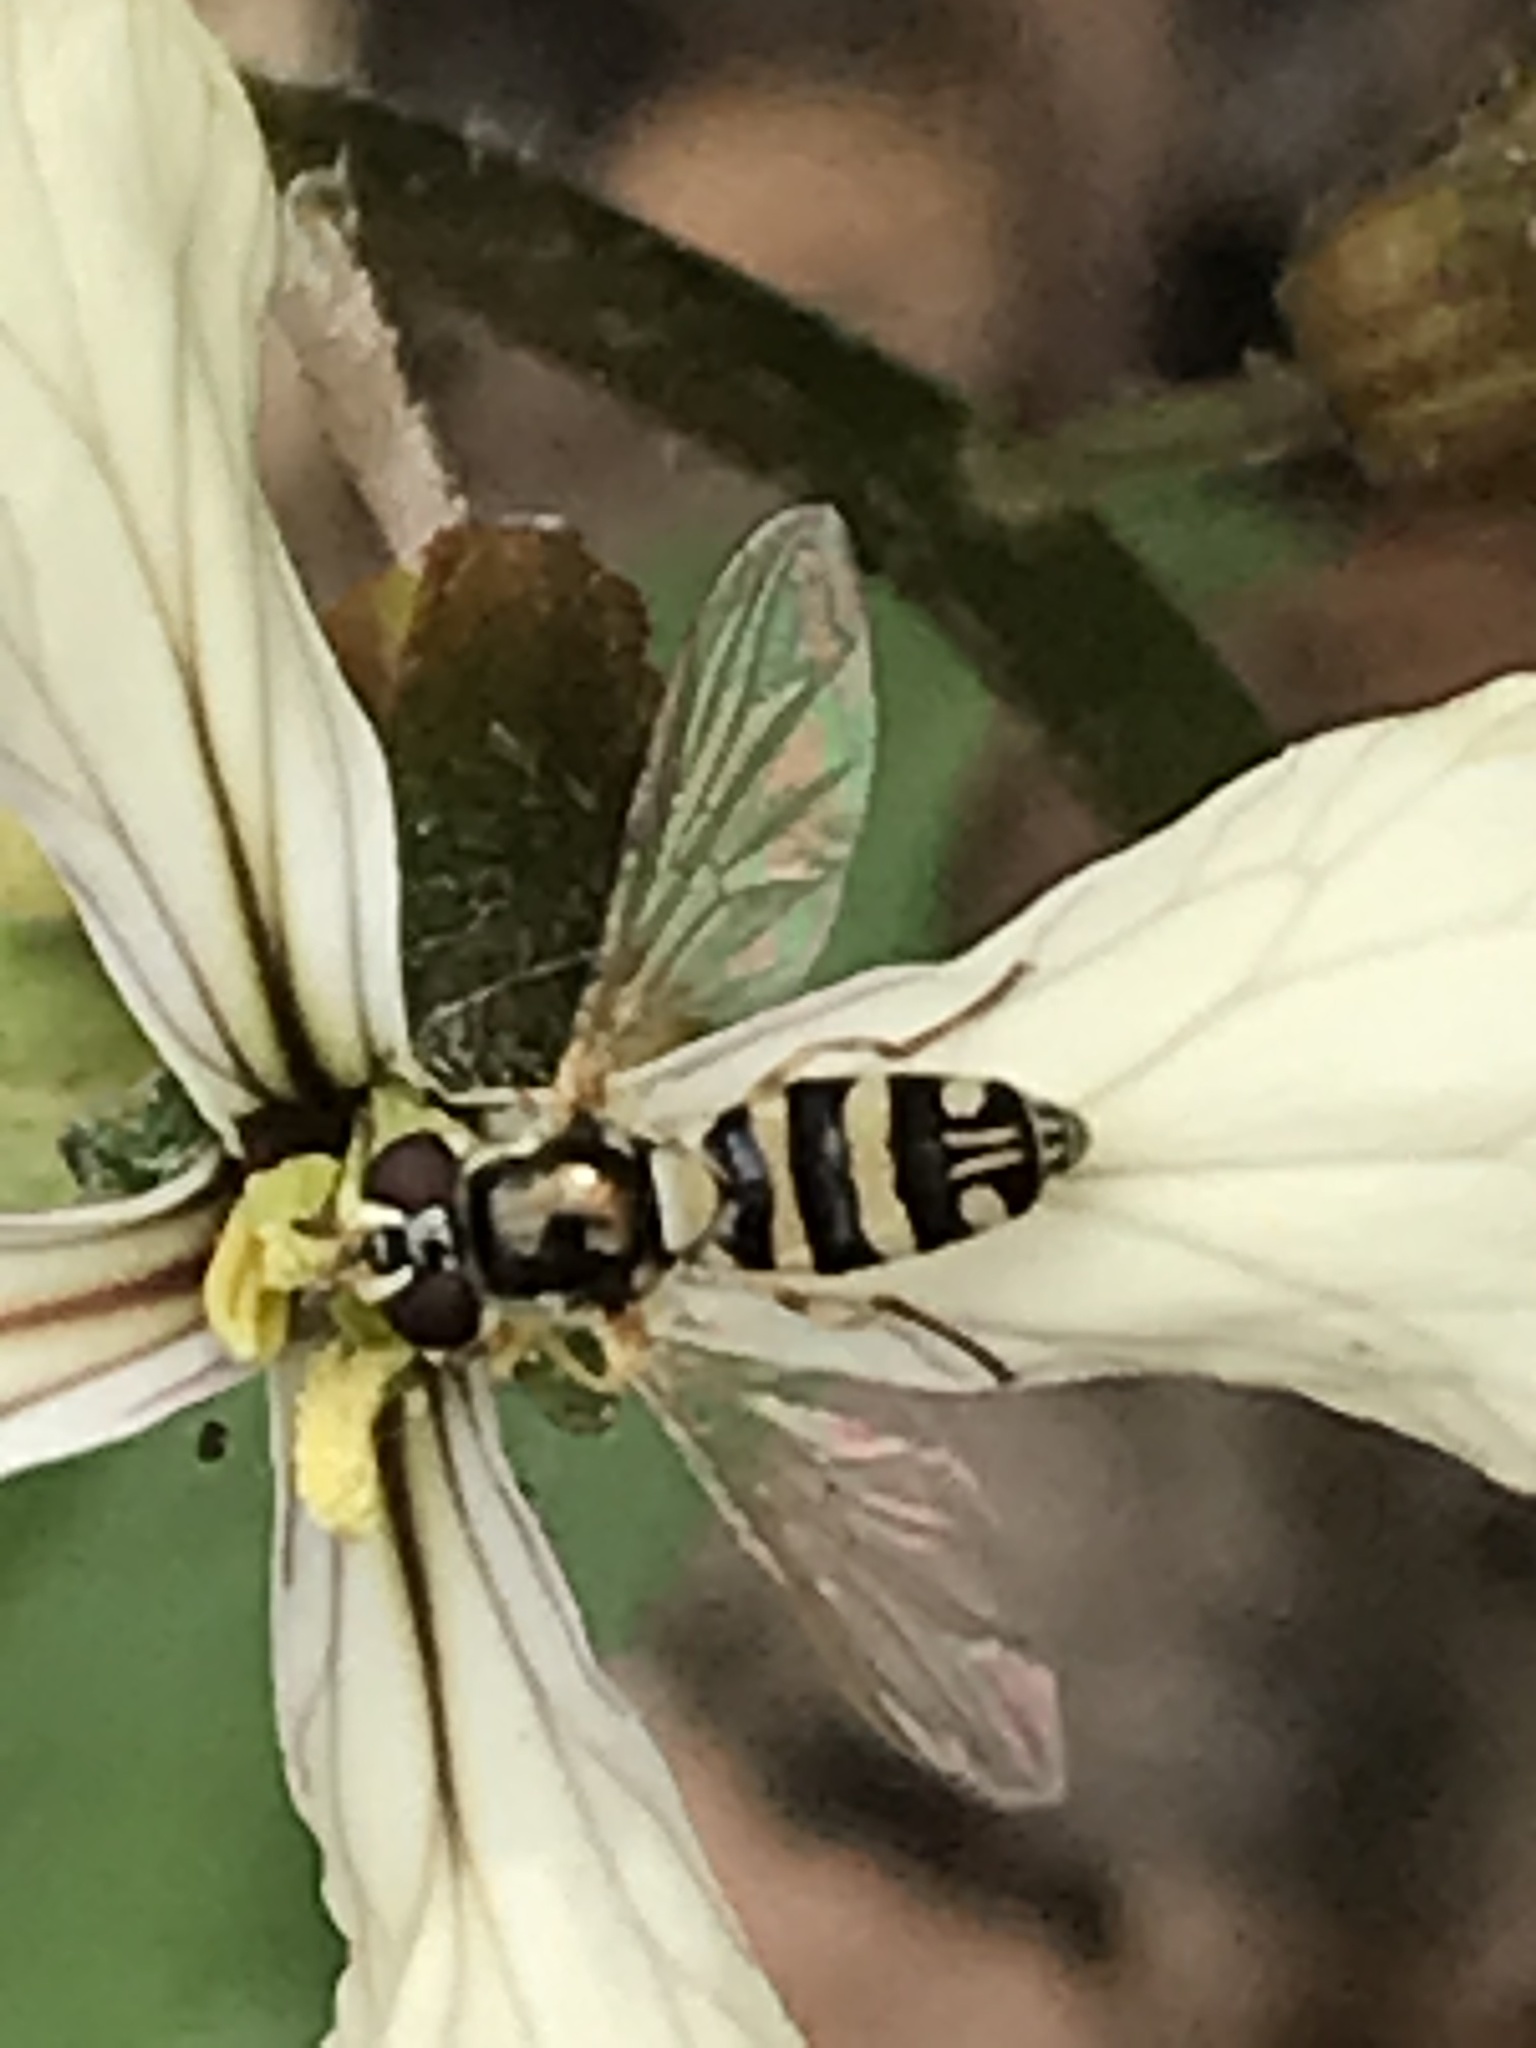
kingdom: Animalia
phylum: Arthropoda
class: Insecta
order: Diptera
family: Syrphidae
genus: Allograpta
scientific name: Allograpta exotica
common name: Syrphid fly
